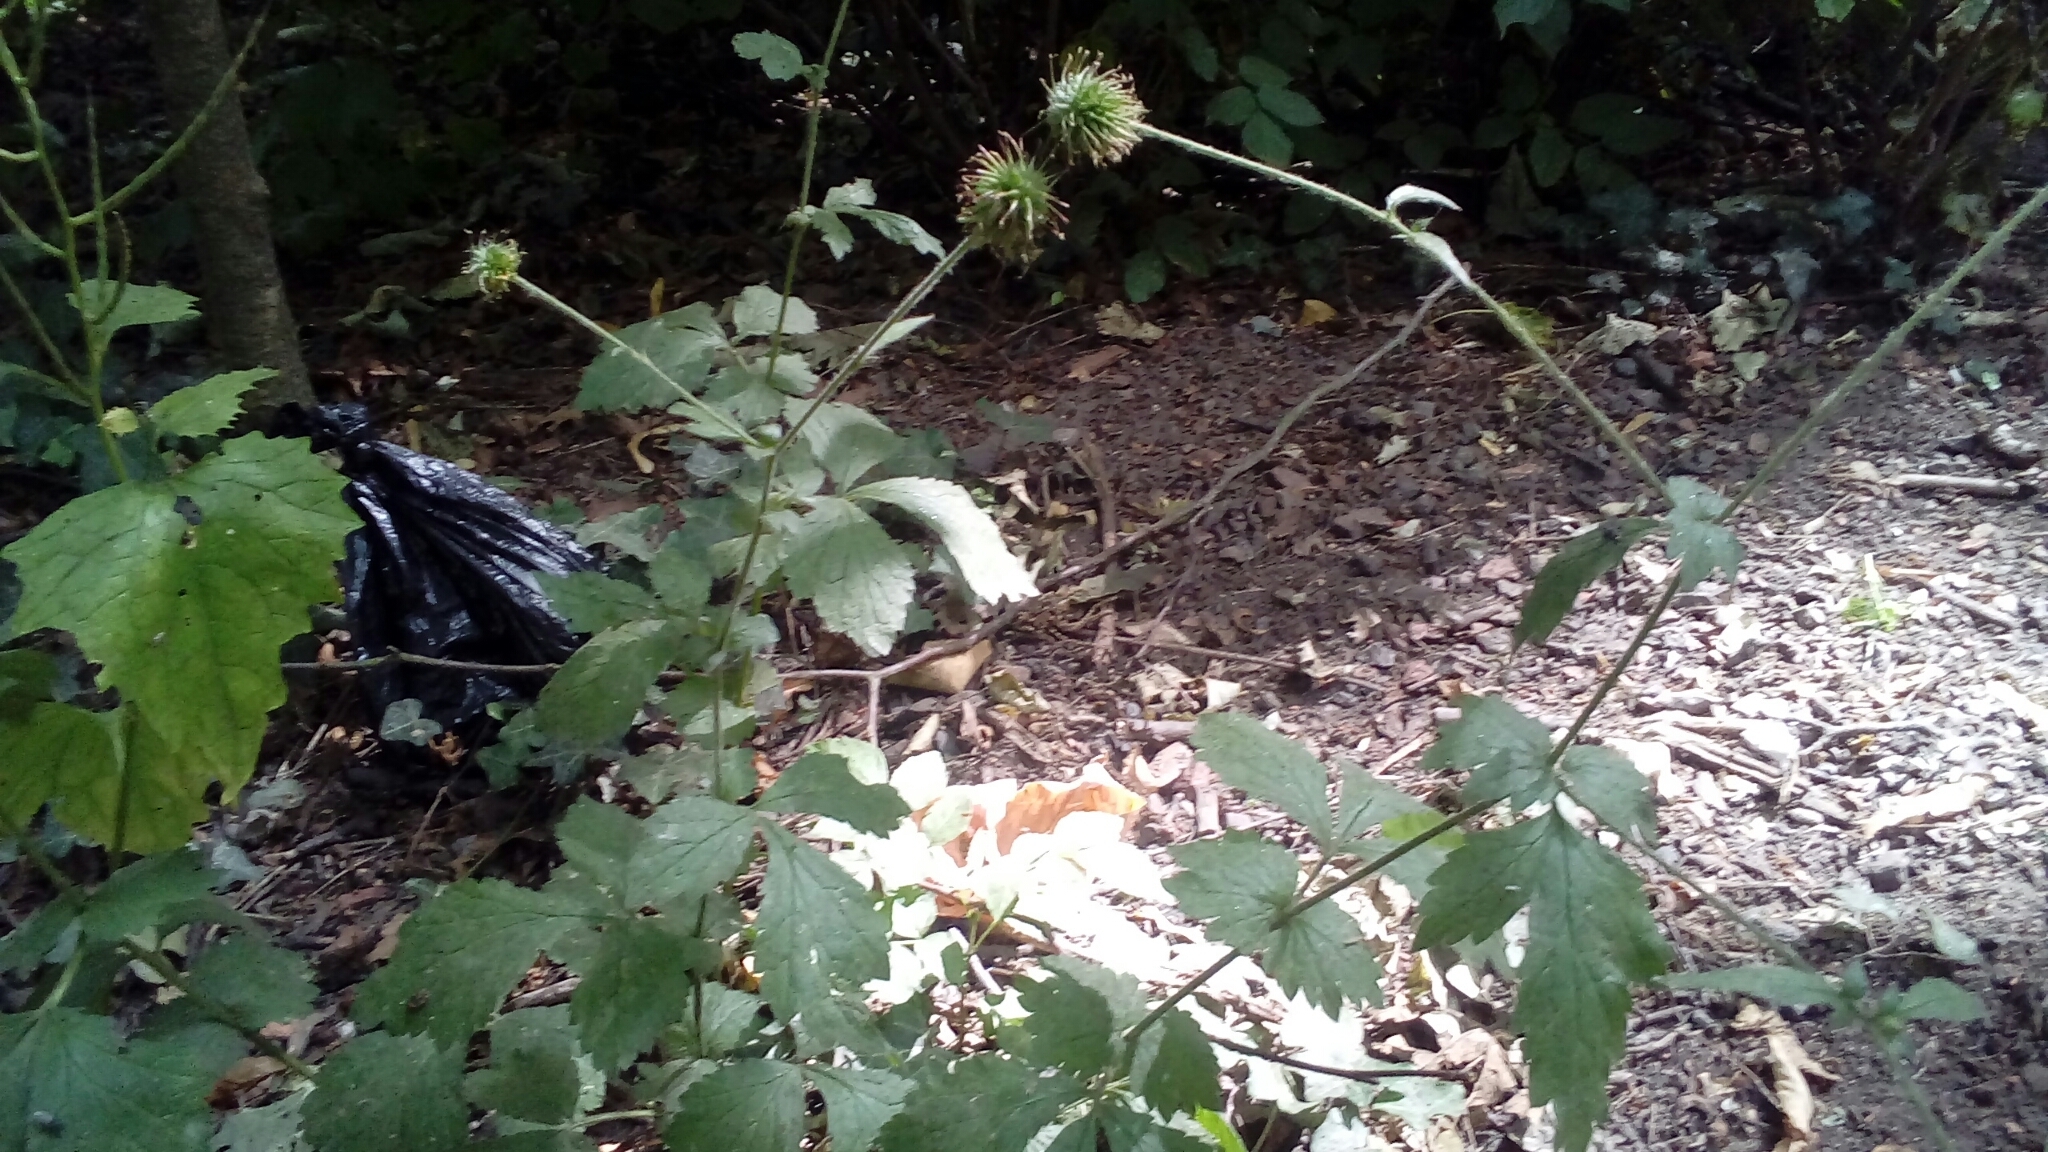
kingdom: Plantae
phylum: Tracheophyta
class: Magnoliopsida
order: Rosales
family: Rosaceae
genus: Geum
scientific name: Geum urbanum
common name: Wood avens
